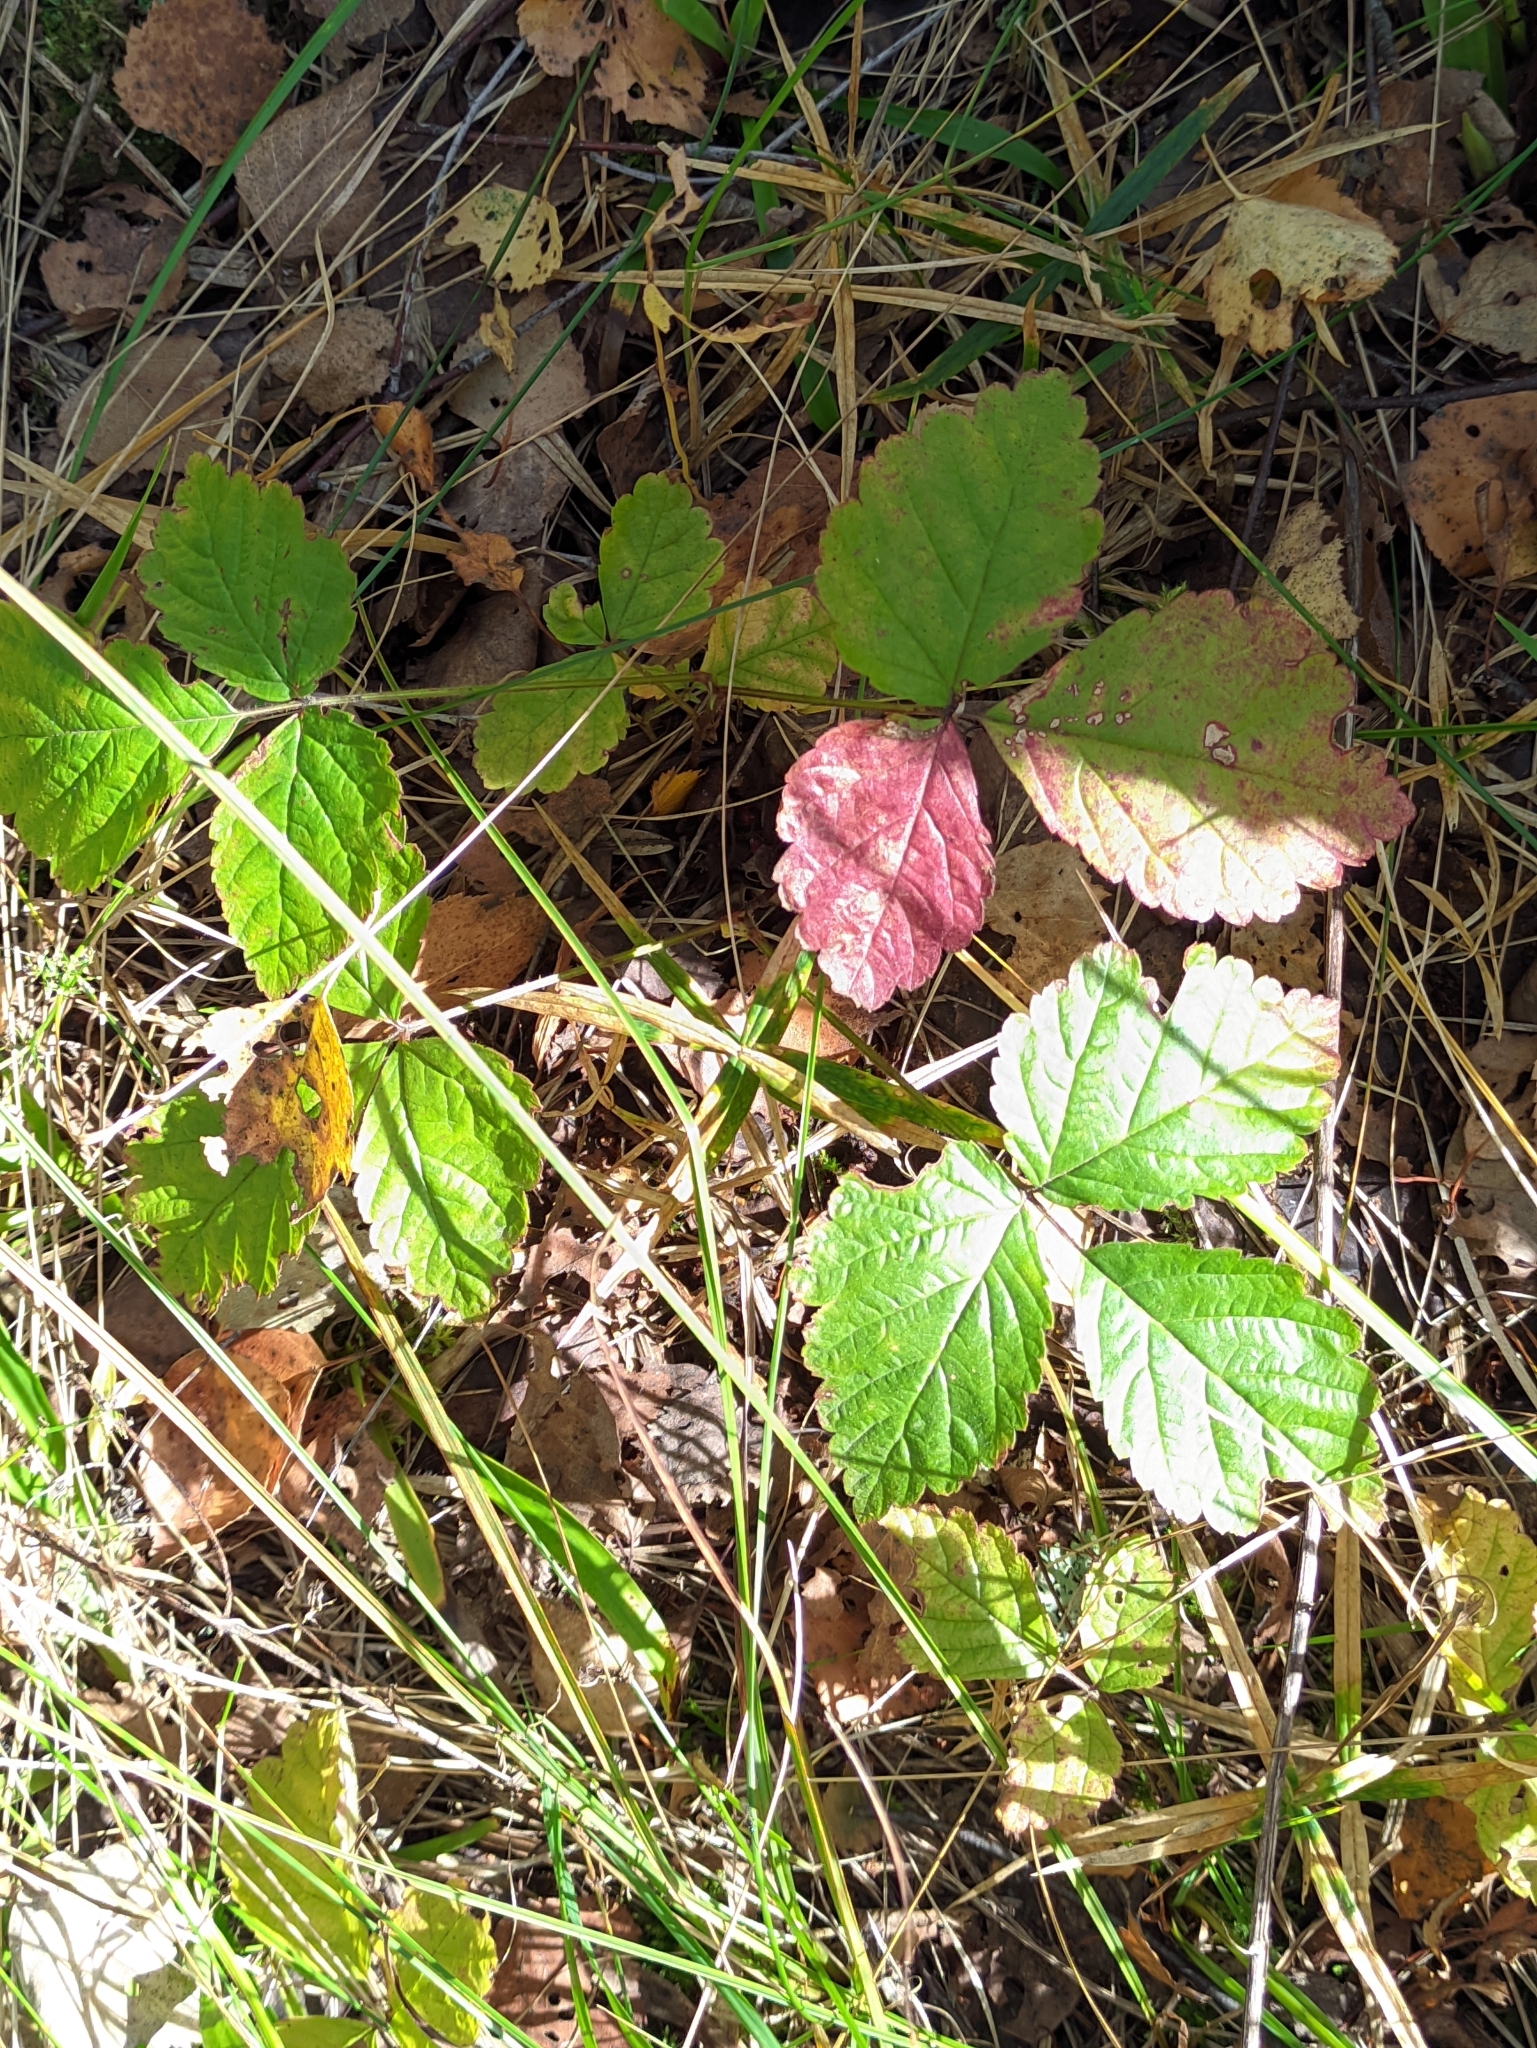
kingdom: Plantae
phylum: Tracheophyta
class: Magnoliopsida
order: Rosales
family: Rosaceae
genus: Rubus
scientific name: Rubus saxatilis
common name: Stone bramble
